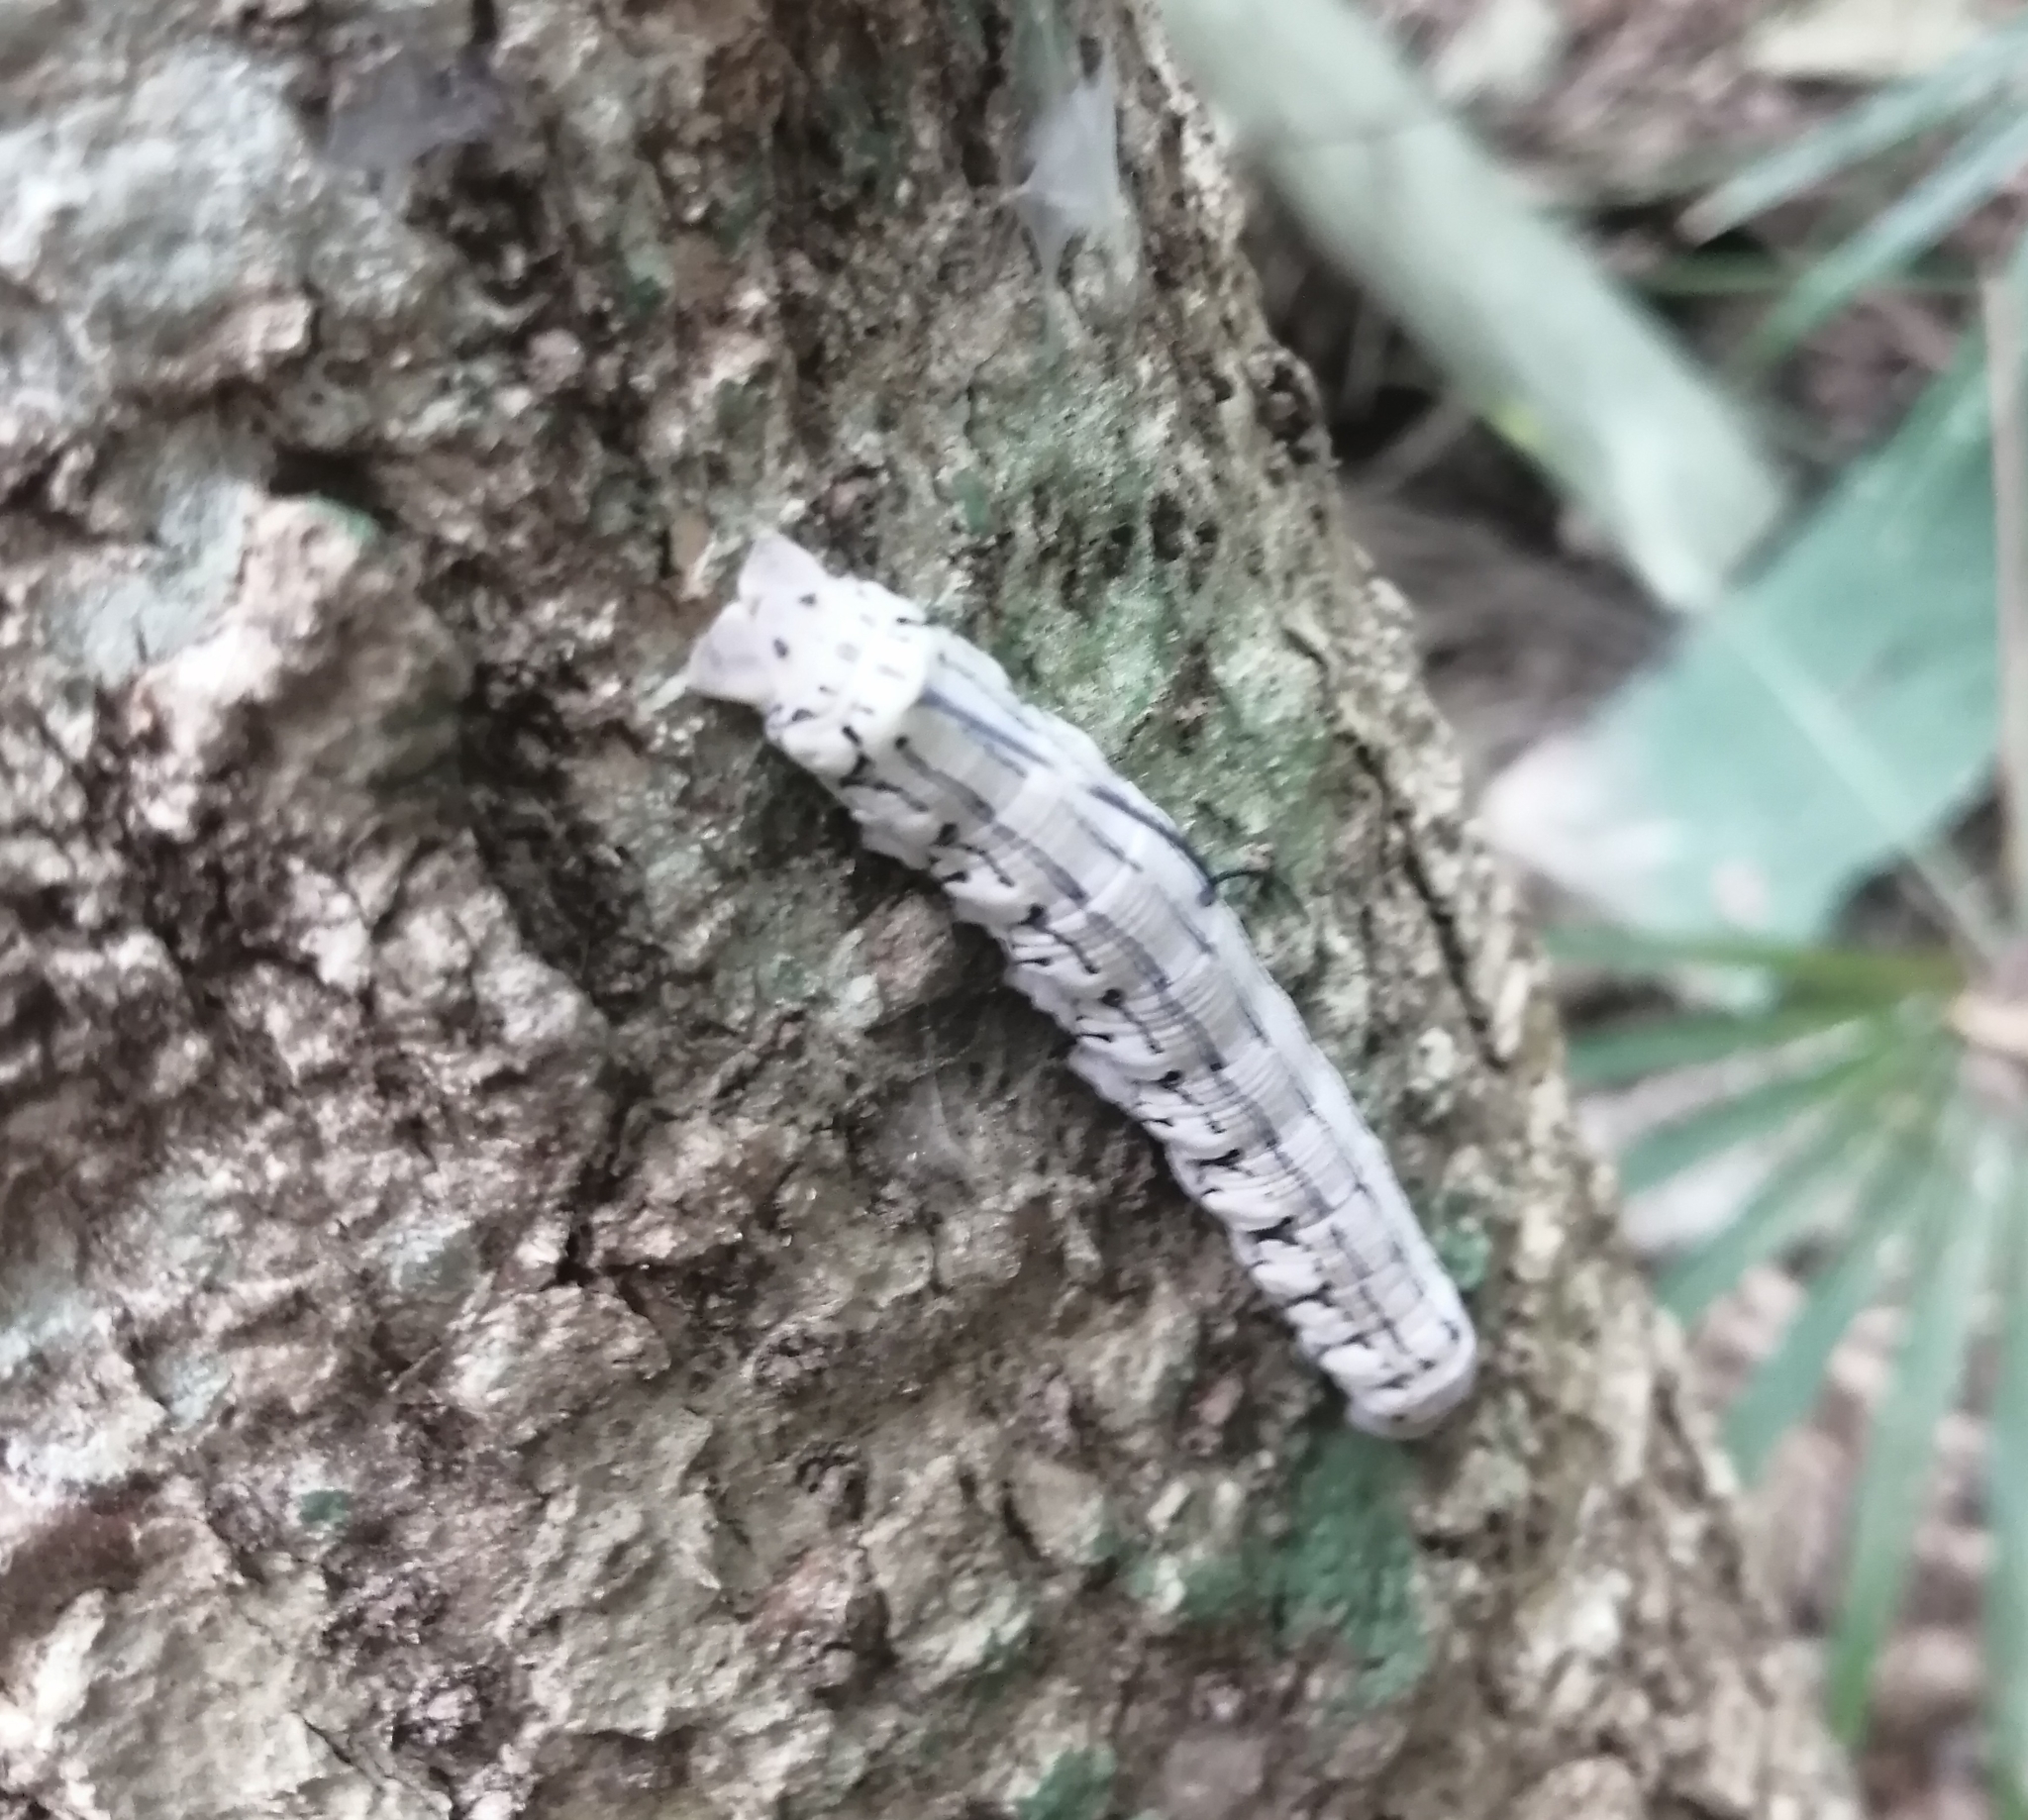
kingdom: Animalia
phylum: Arthropoda
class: Insecta
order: Lepidoptera
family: Sphingidae
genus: Isognathus
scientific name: Isognathus rimosa
